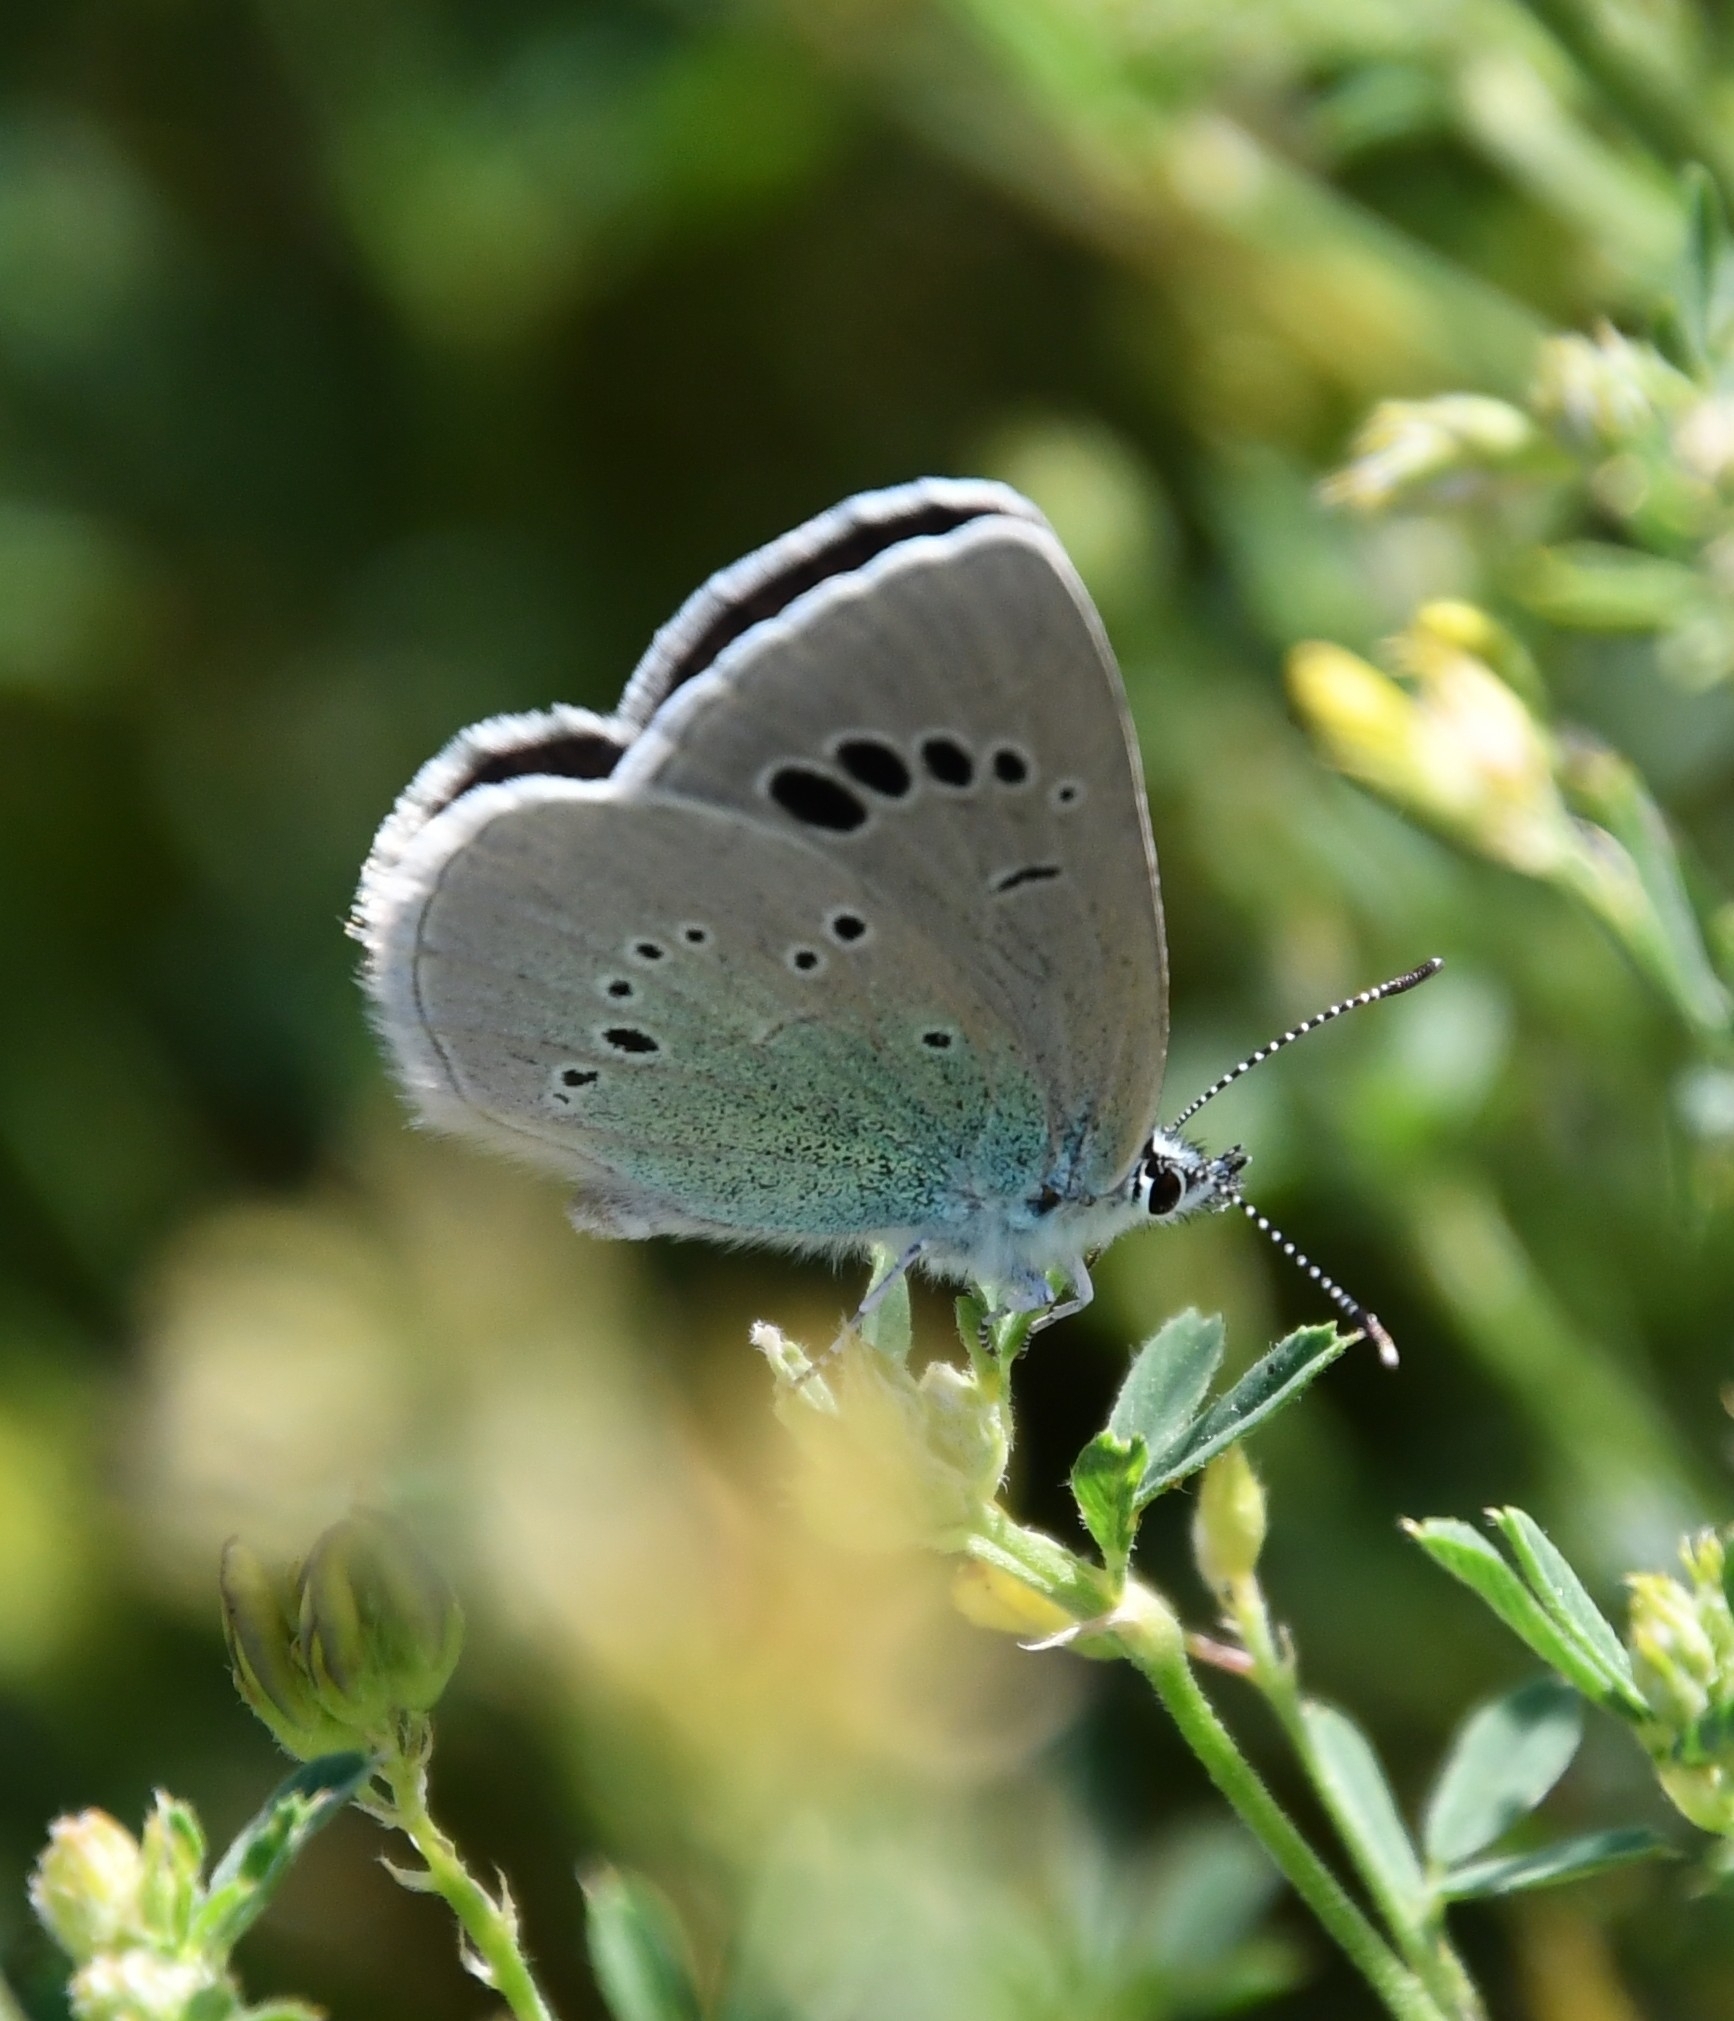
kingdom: Animalia
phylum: Arthropoda
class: Insecta
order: Lepidoptera
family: Lycaenidae
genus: Glaucopsyche
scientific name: Glaucopsyche alexis
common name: Green-underside blue
